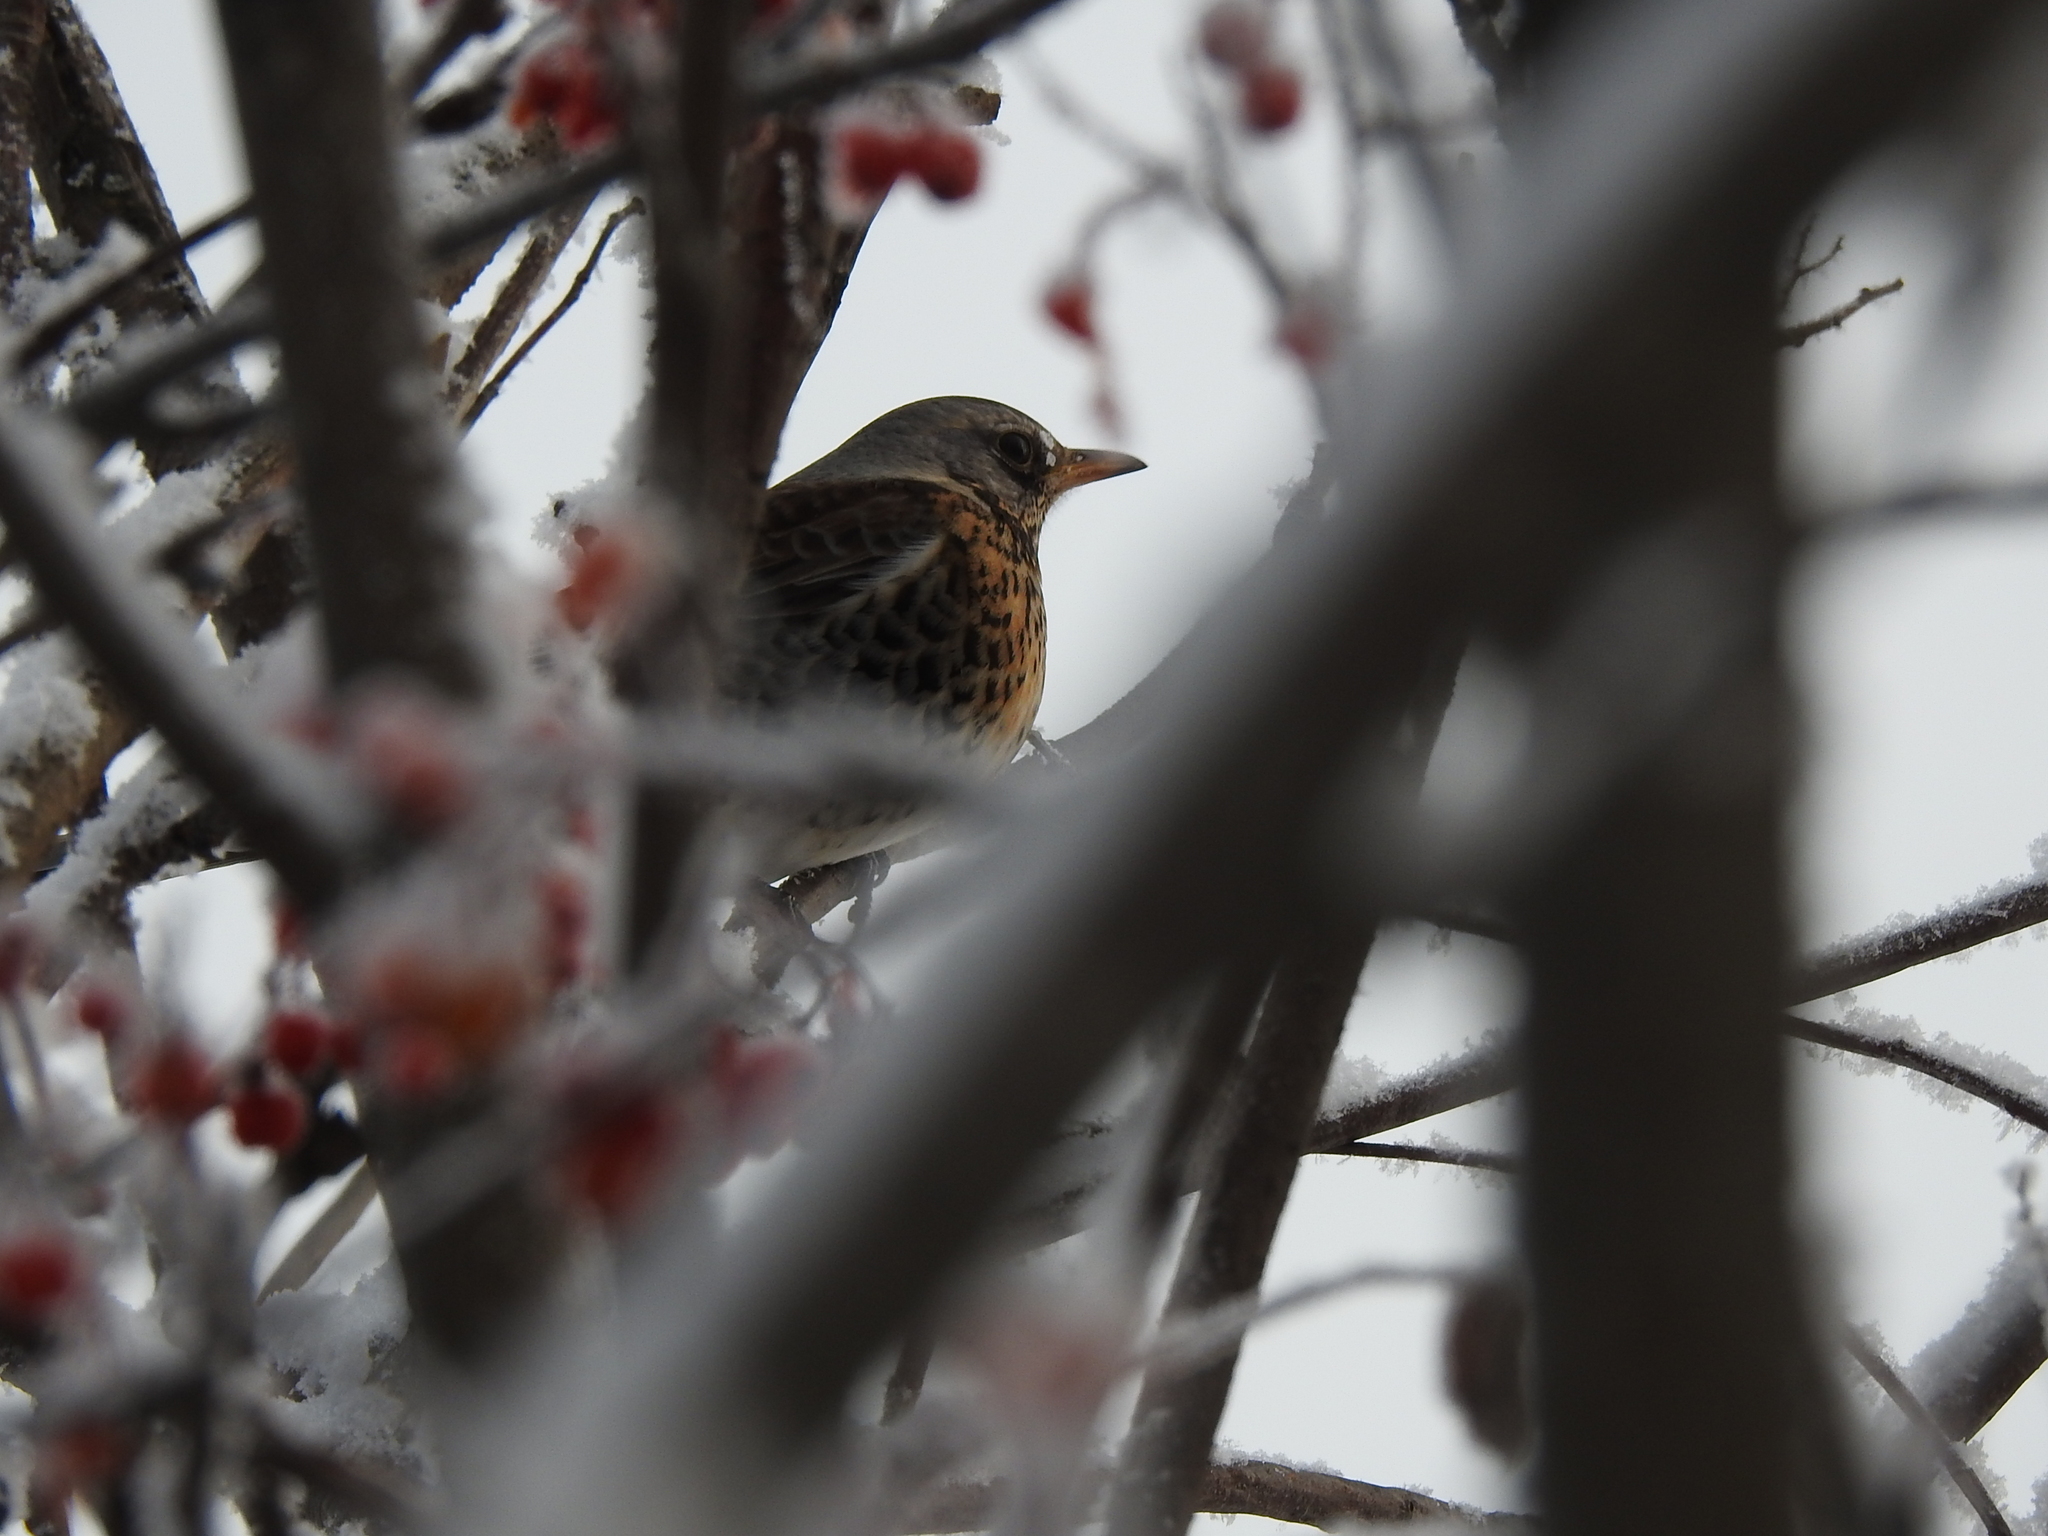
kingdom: Animalia
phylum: Chordata
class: Aves
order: Passeriformes
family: Turdidae
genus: Turdus
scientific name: Turdus pilaris
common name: Fieldfare
